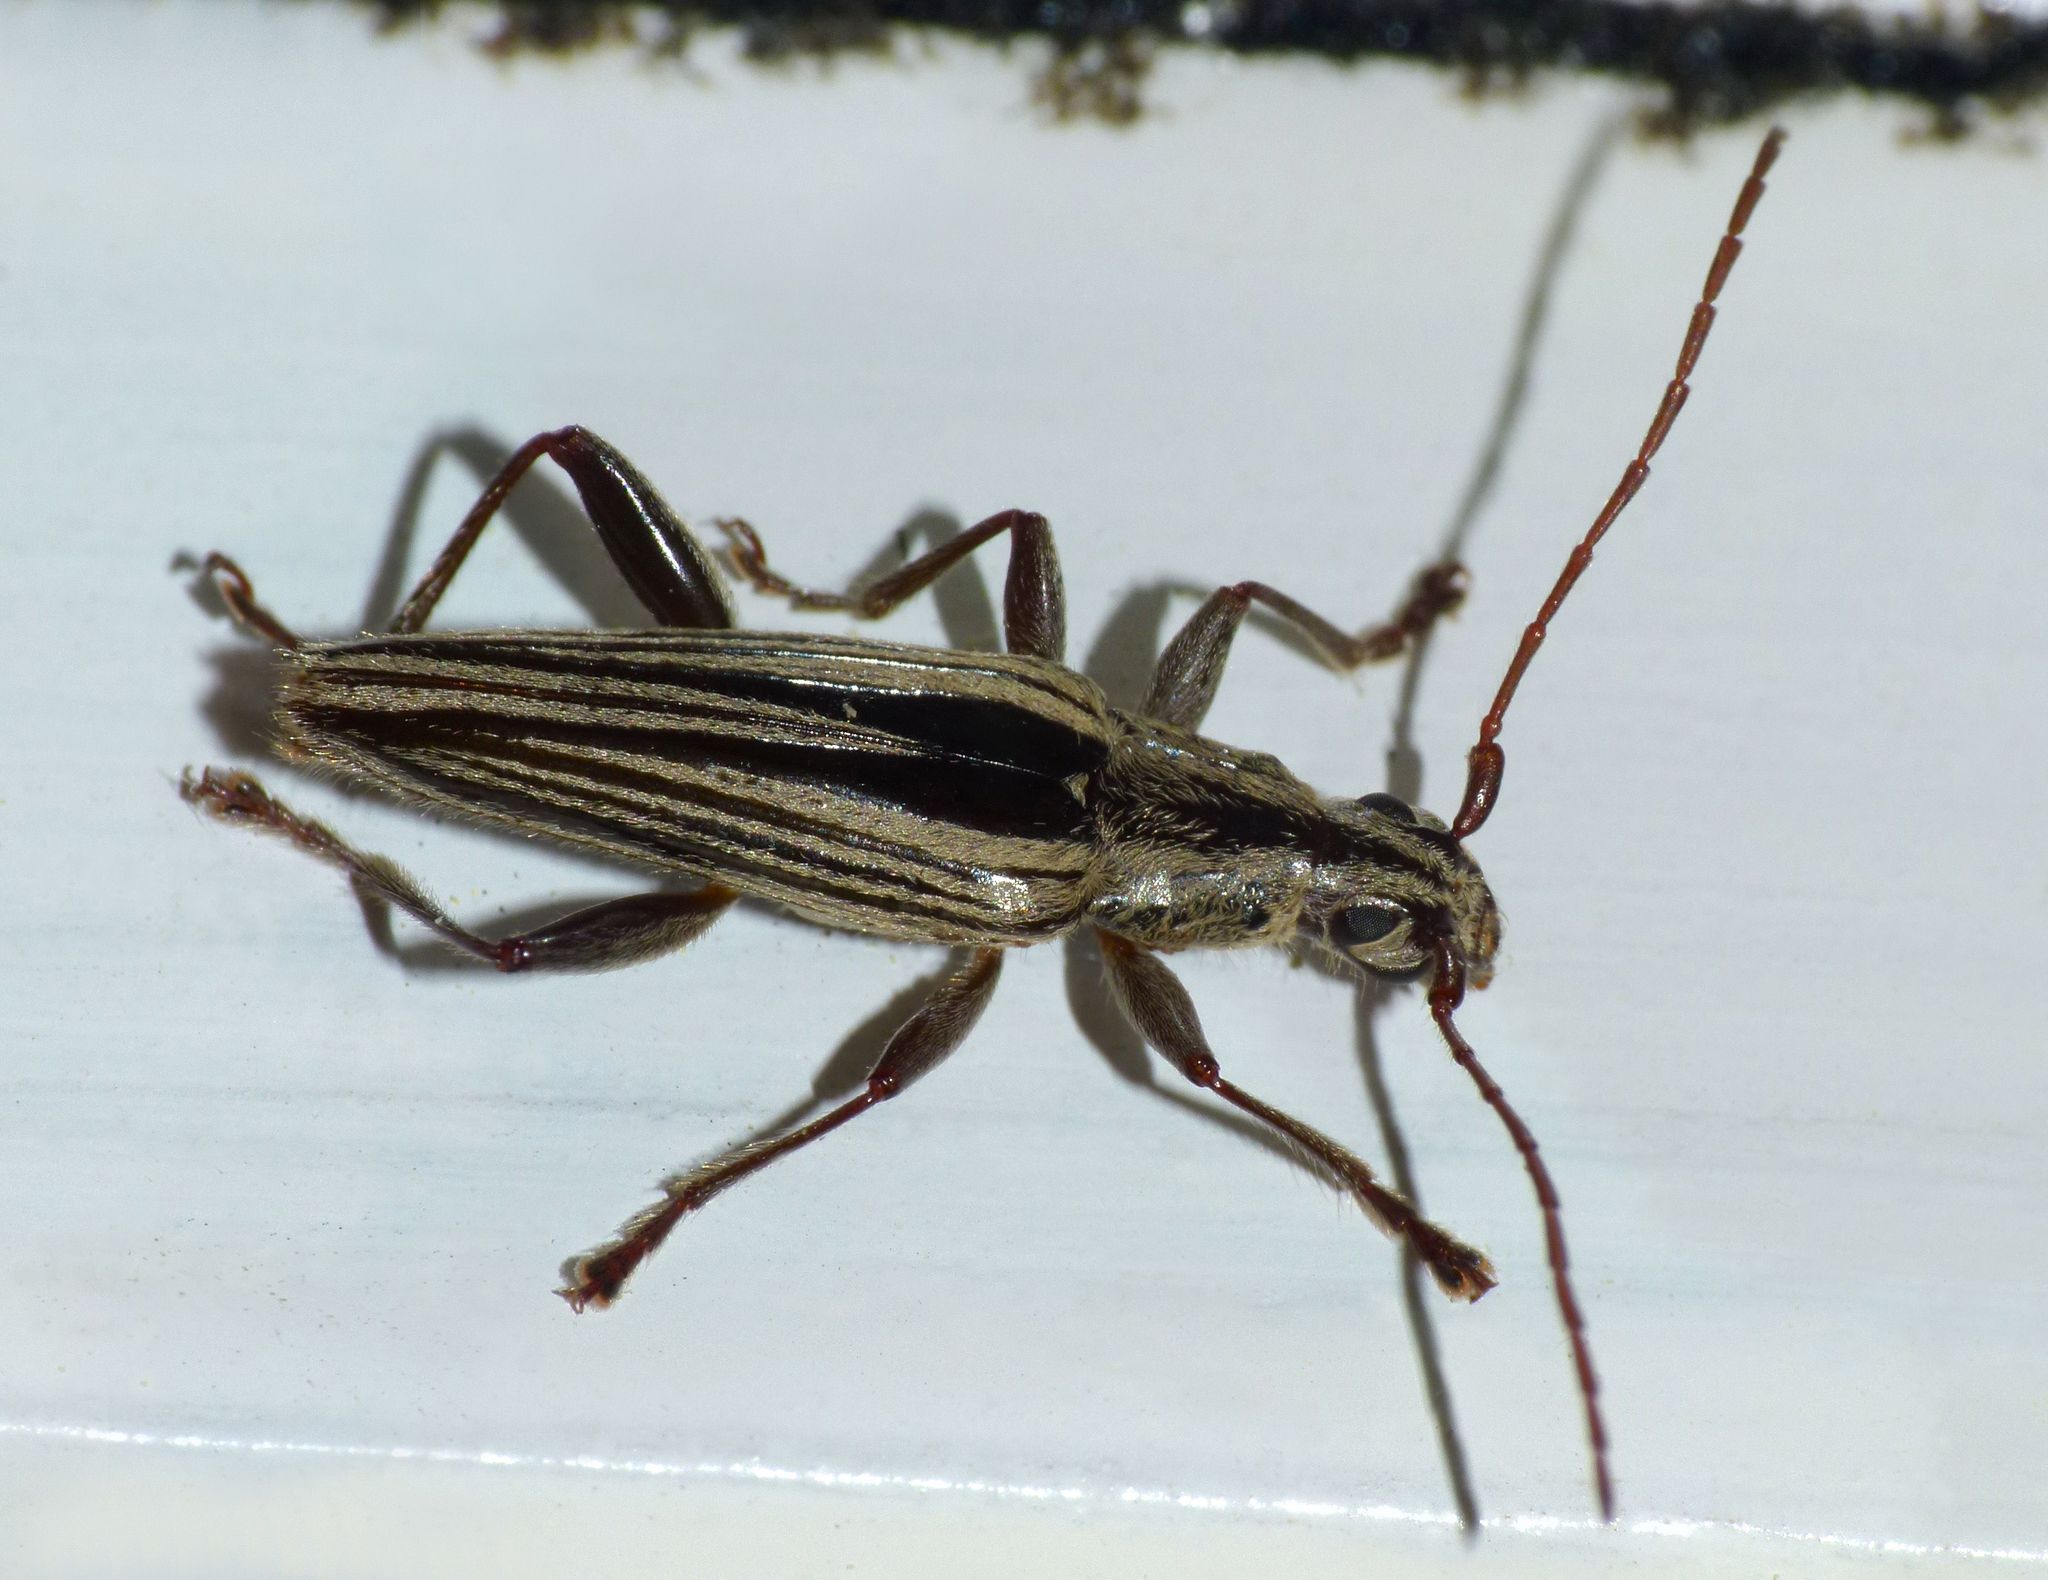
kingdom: Animalia
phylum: Arthropoda
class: Insecta
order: Coleoptera
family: Cerambycidae
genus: Coptomma
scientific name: Coptomma sulcatum
